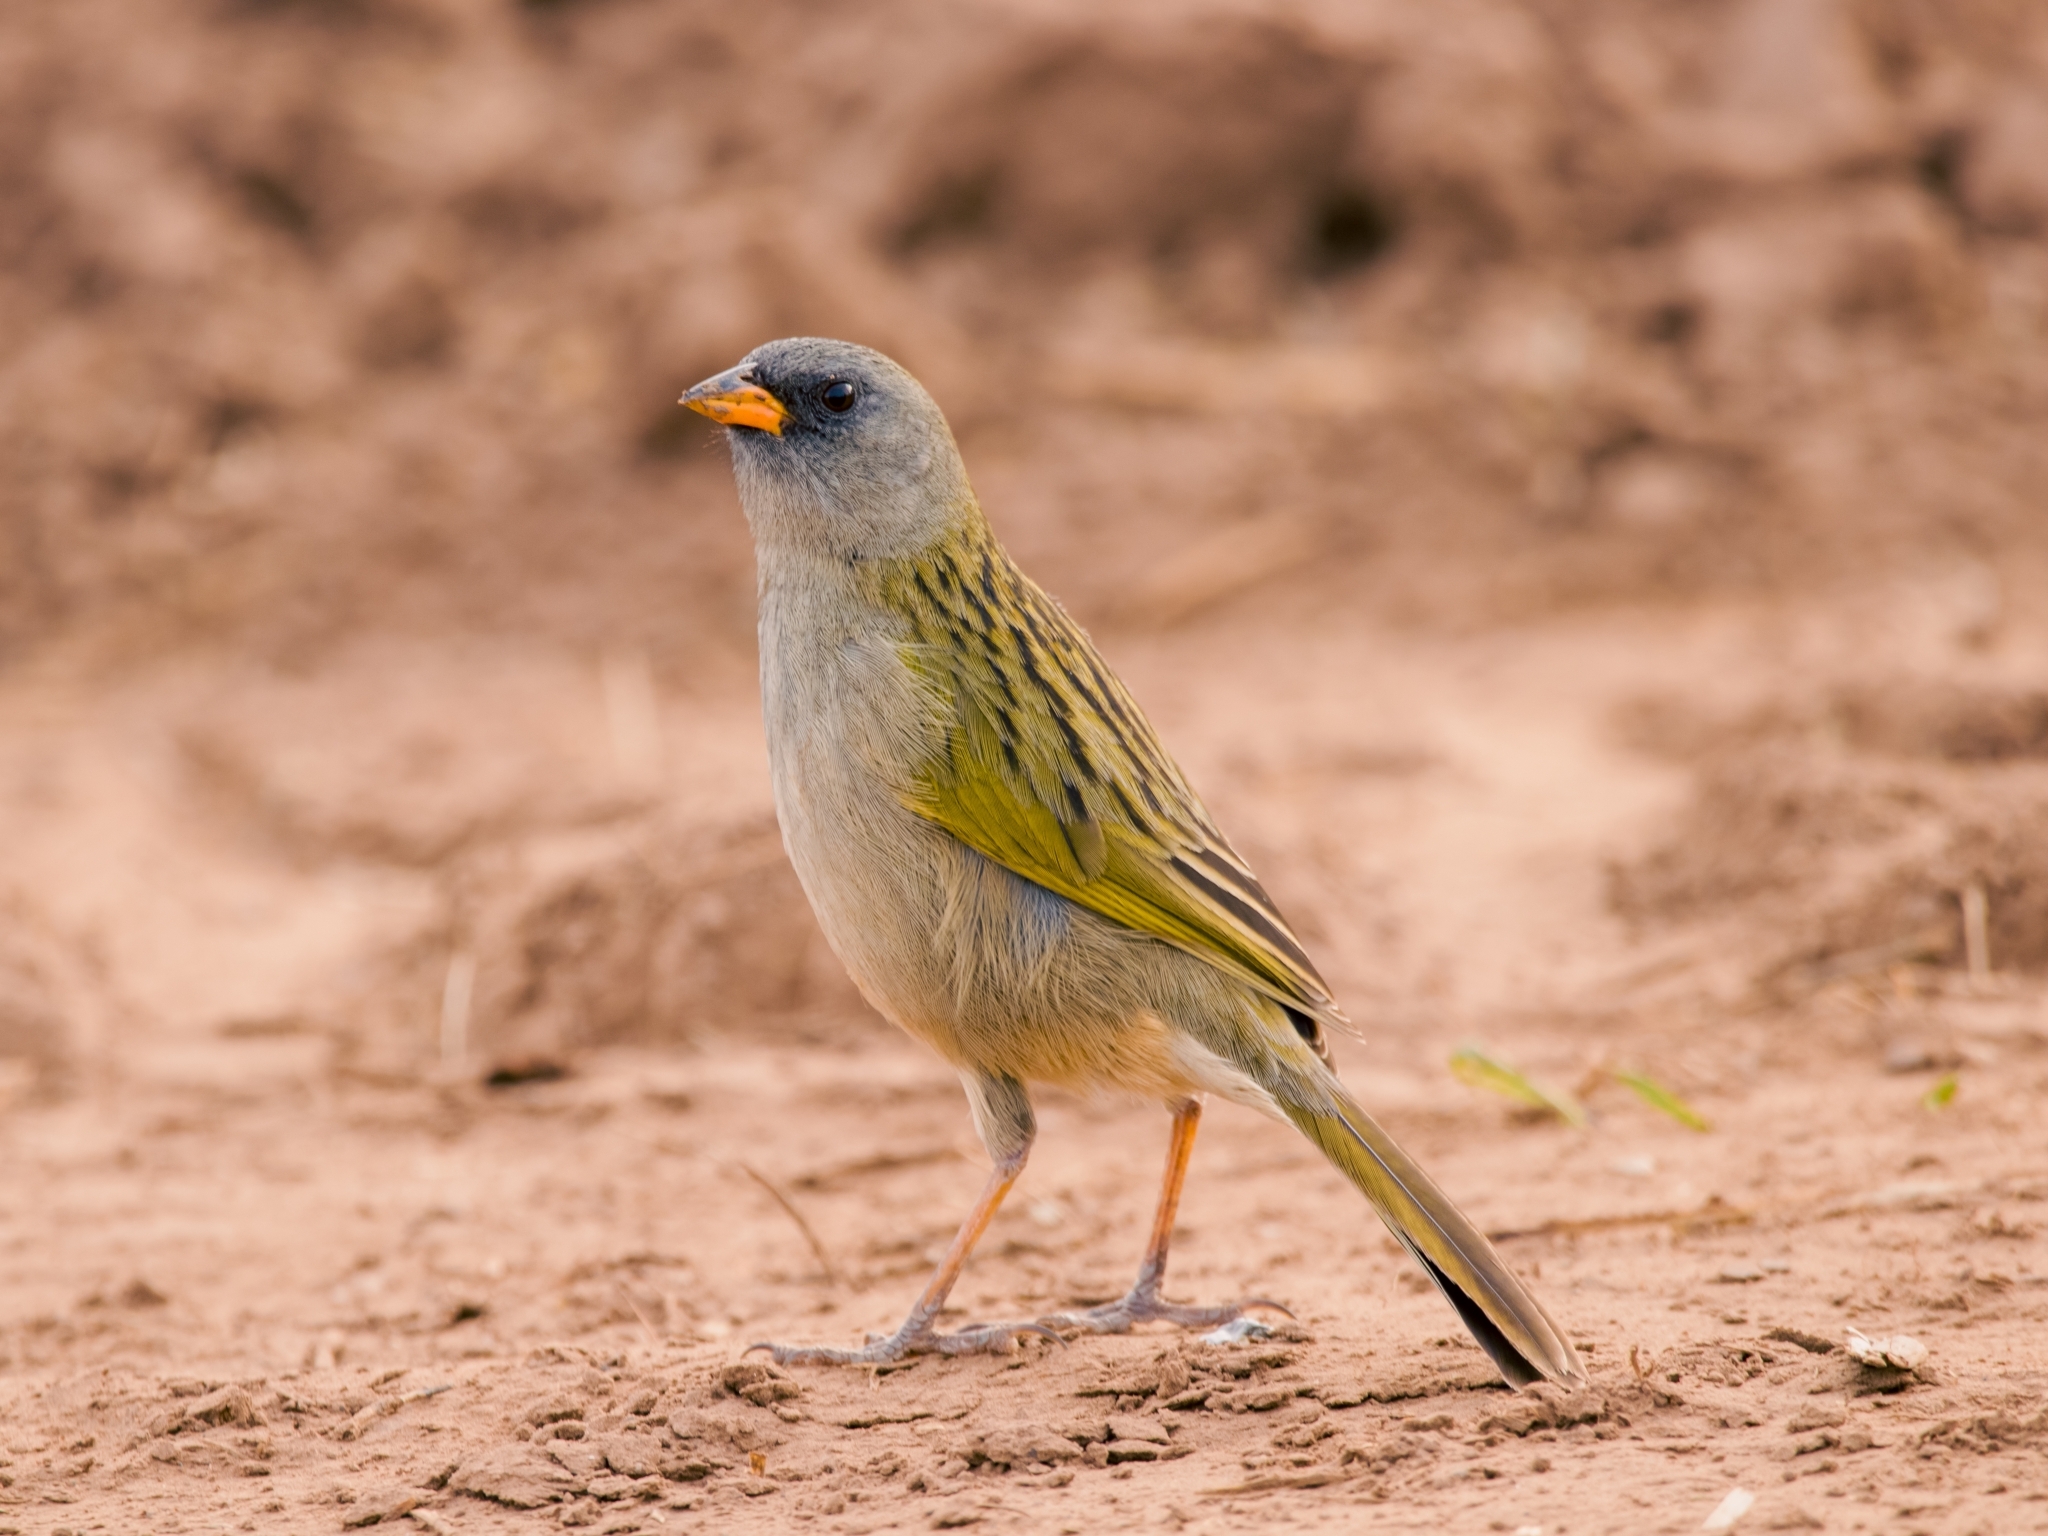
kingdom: Animalia
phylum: Chordata
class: Aves
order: Passeriformes
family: Thraupidae
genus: Embernagra
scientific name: Embernagra platensis
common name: Pampa finch
